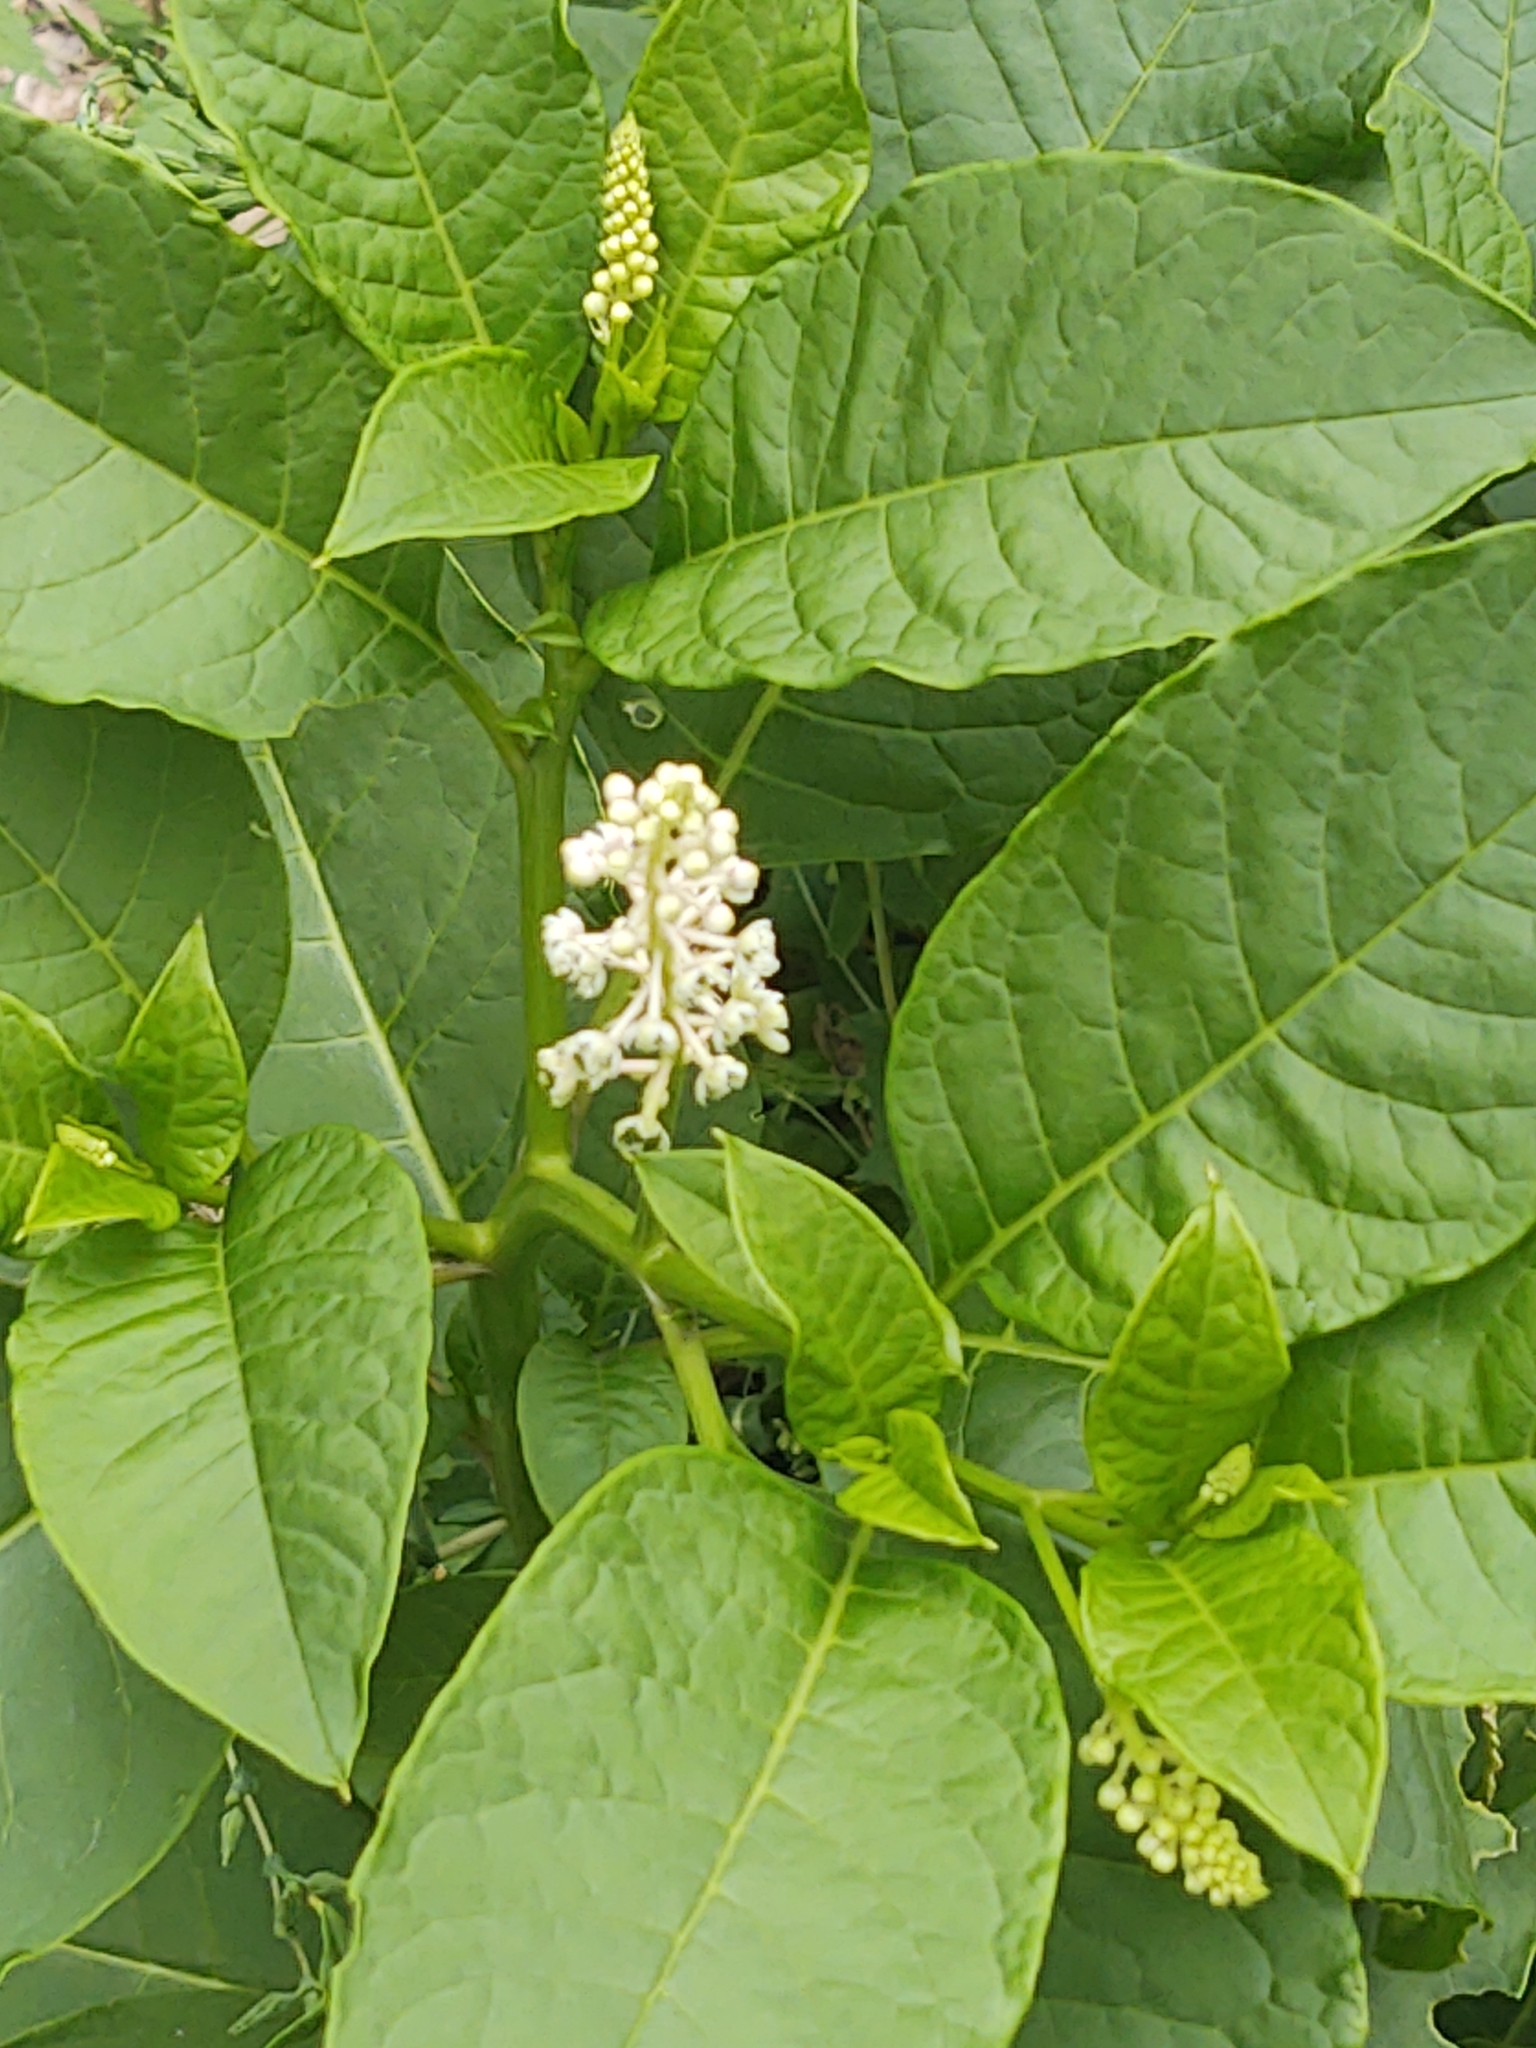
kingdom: Plantae
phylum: Tracheophyta
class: Magnoliopsida
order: Caryophyllales
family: Phytolaccaceae
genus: Phytolacca
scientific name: Phytolacca americana
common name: American pokeweed
